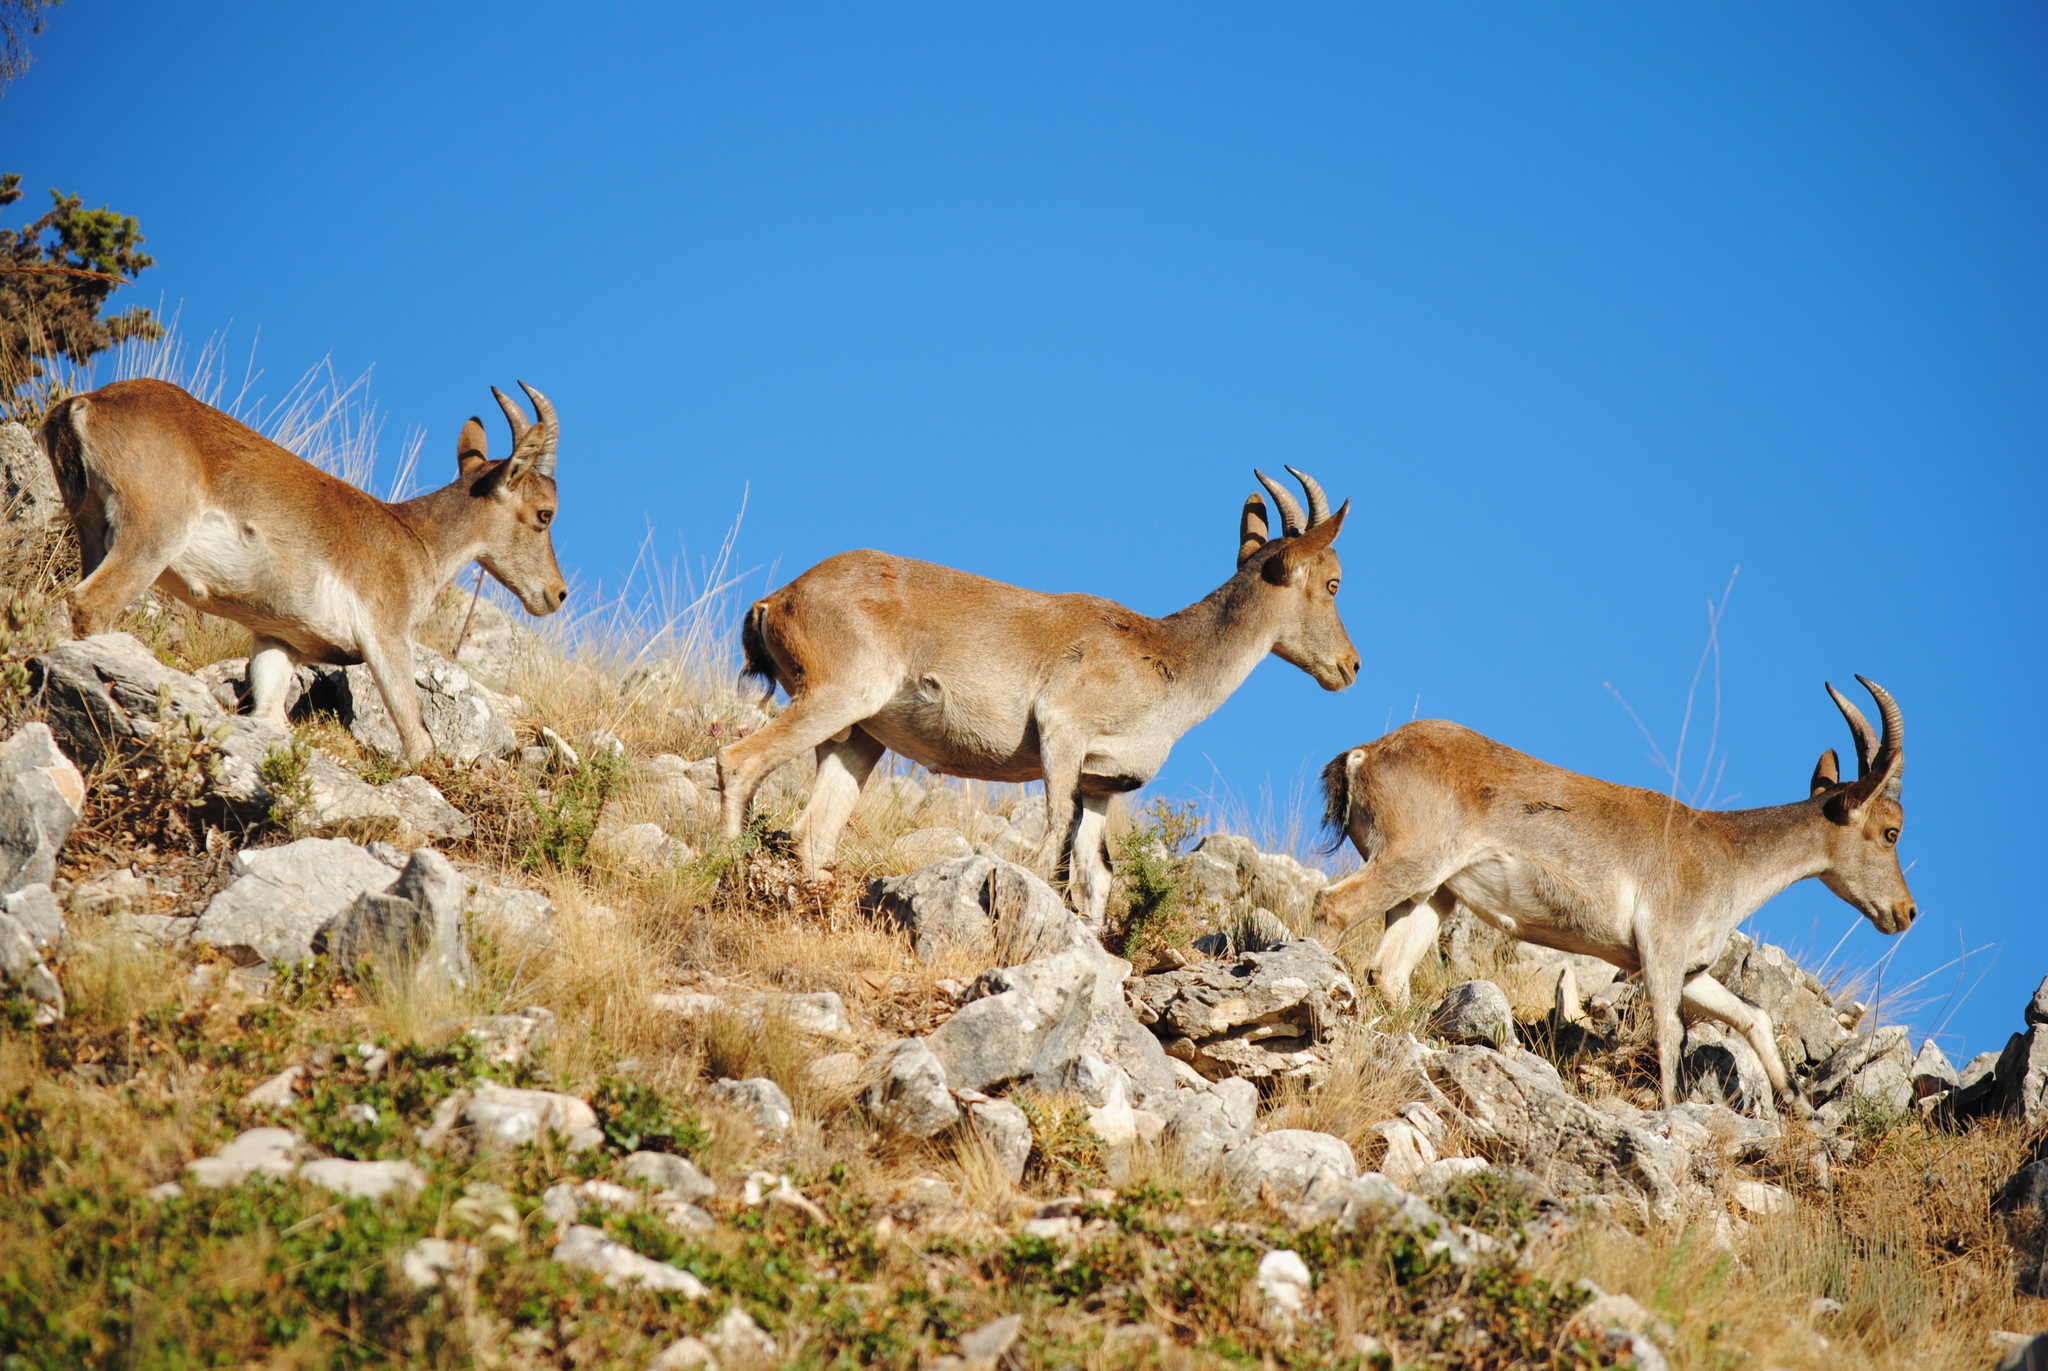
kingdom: Animalia
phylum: Chordata
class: Mammalia
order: Artiodactyla
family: Bovidae
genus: Capra
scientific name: Capra pyrenaica
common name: Spanish ibex
